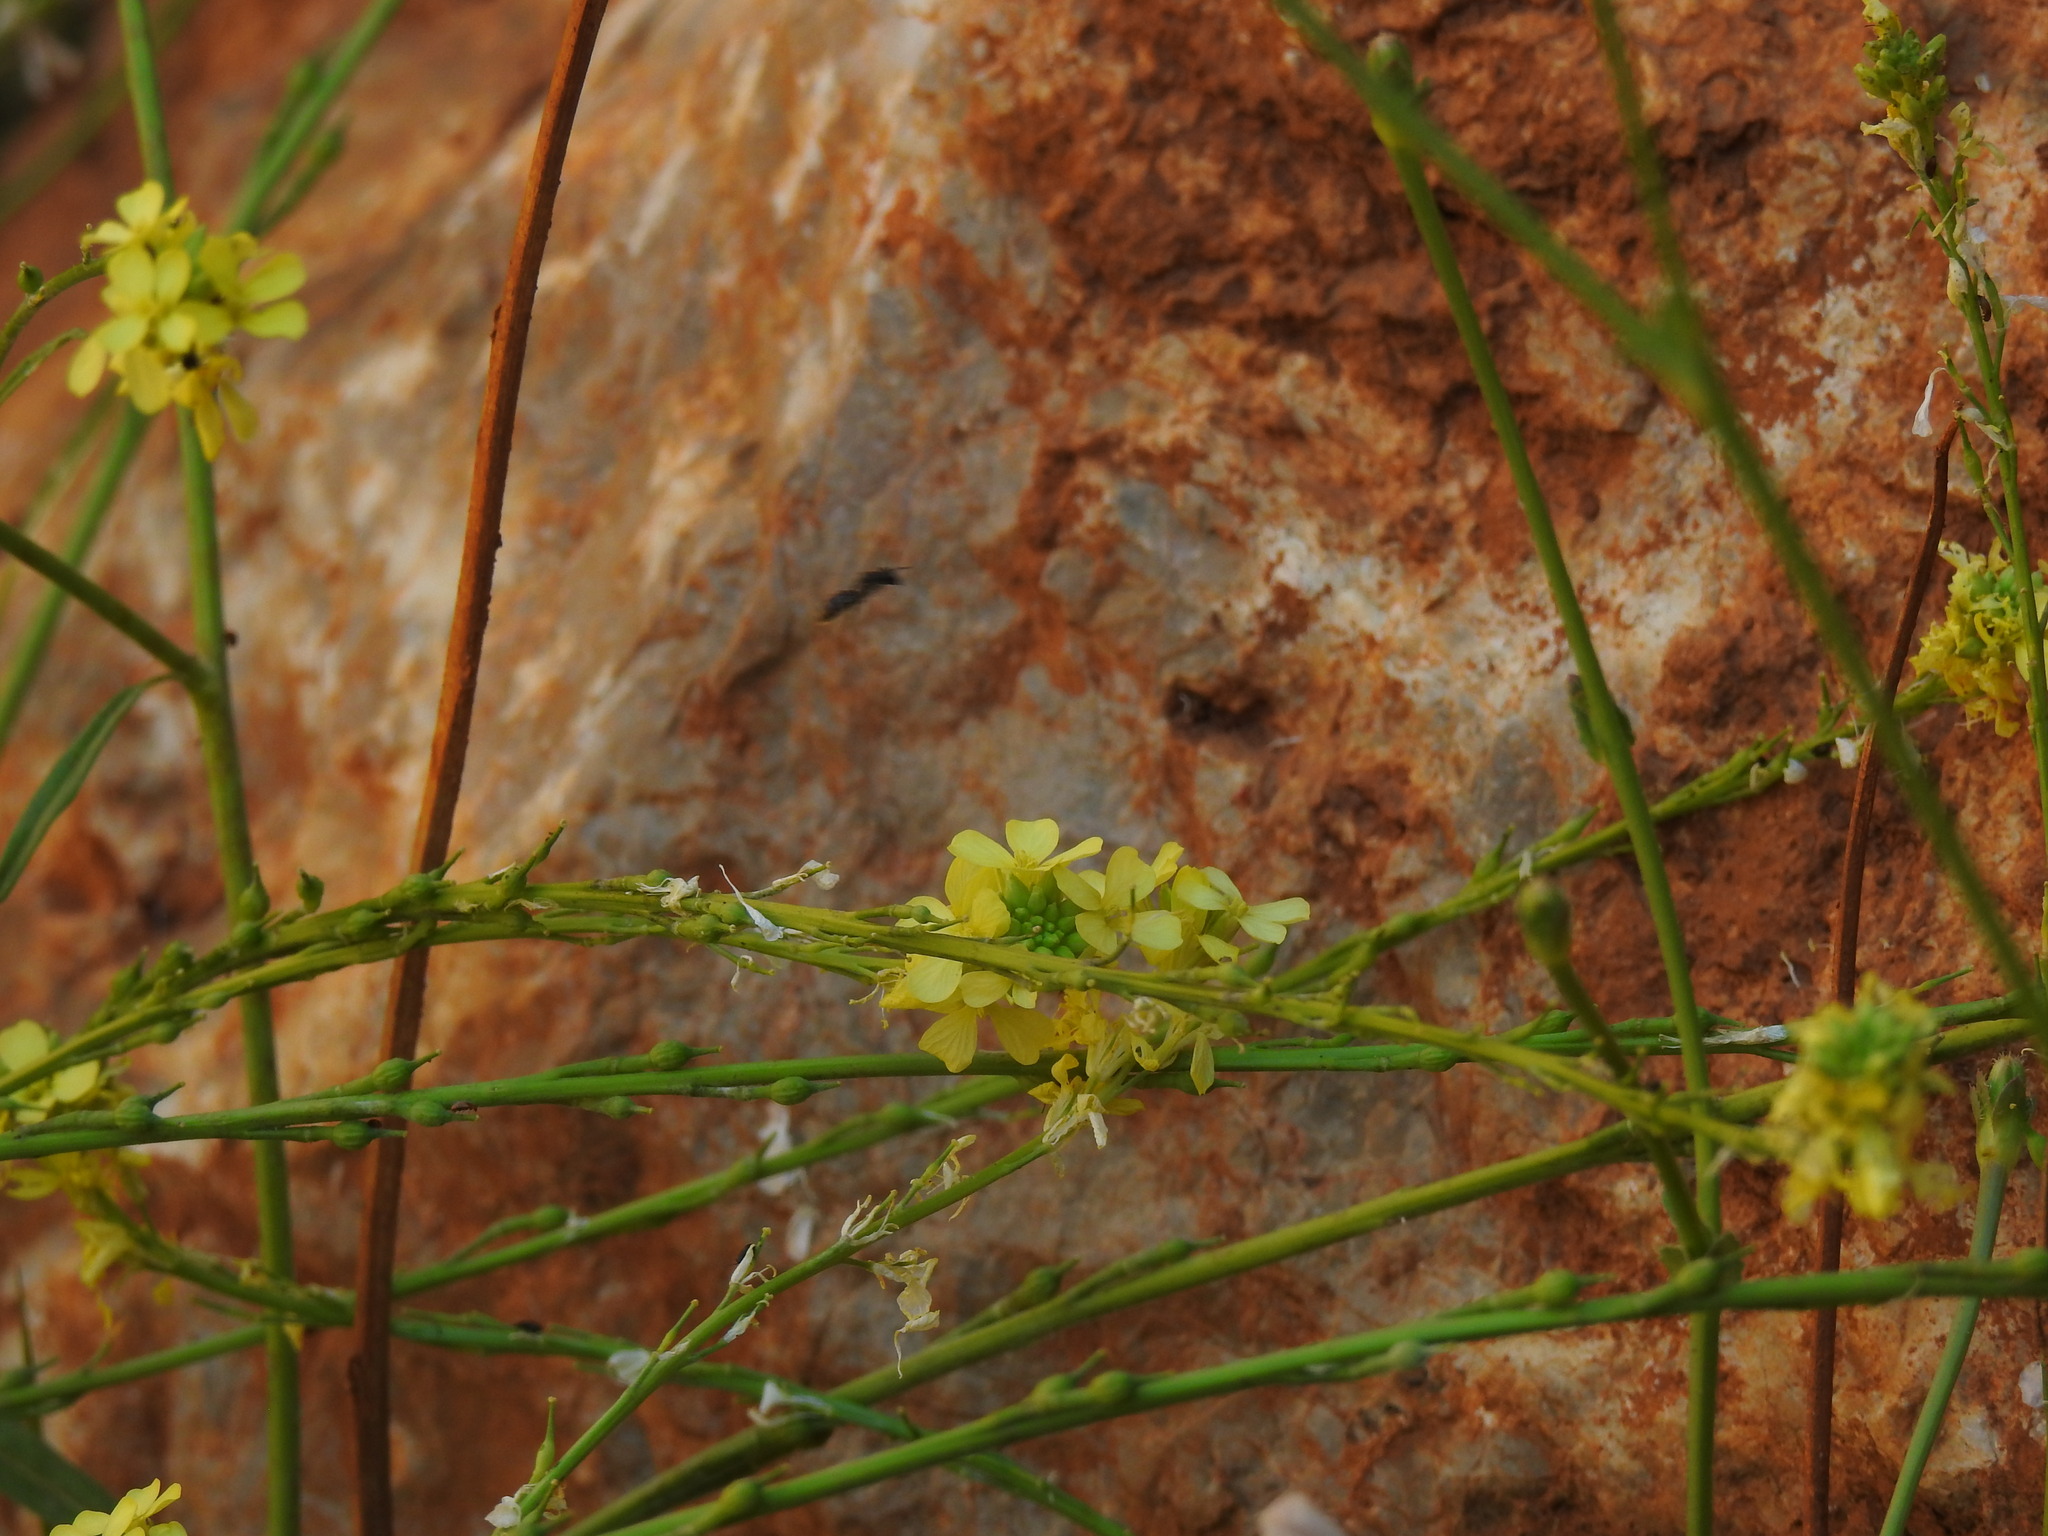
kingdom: Plantae
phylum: Tracheophyta
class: Magnoliopsida
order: Brassicales
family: Brassicaceae
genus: Rapistrum
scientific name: Rapistrum rugosum
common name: Annual bastardcabbage
